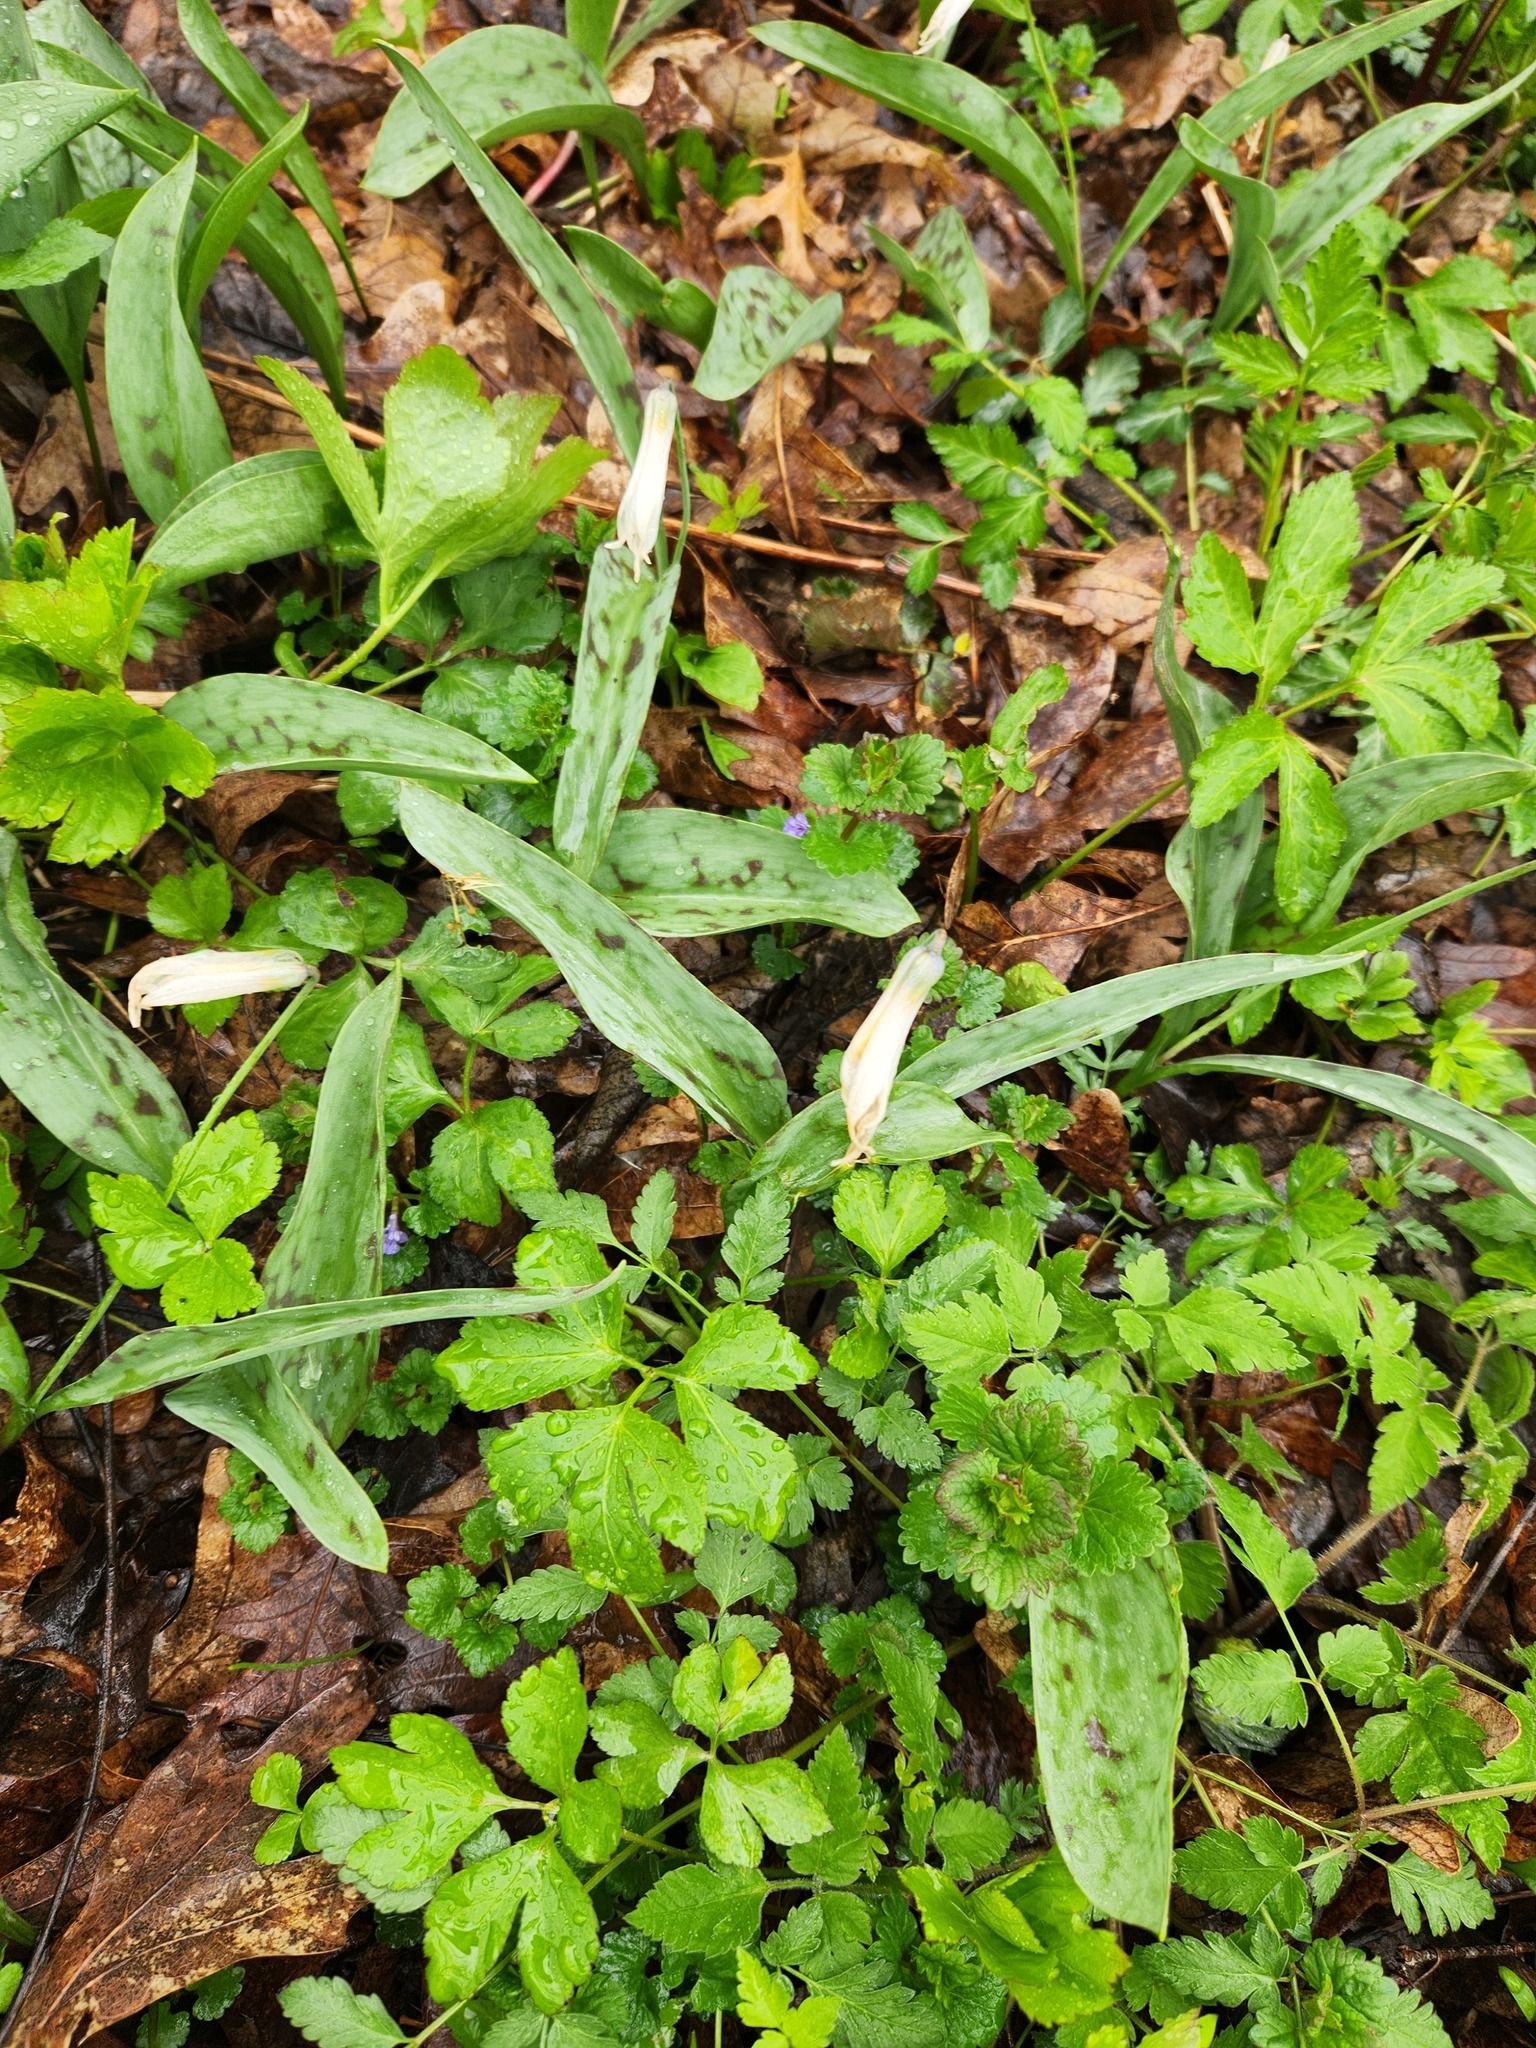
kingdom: Plantae
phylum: Tracheophyta
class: Liliopsida
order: Liliales
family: Liliaceae
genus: Erythronium
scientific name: Erythronium albidum
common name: White trout-lily
